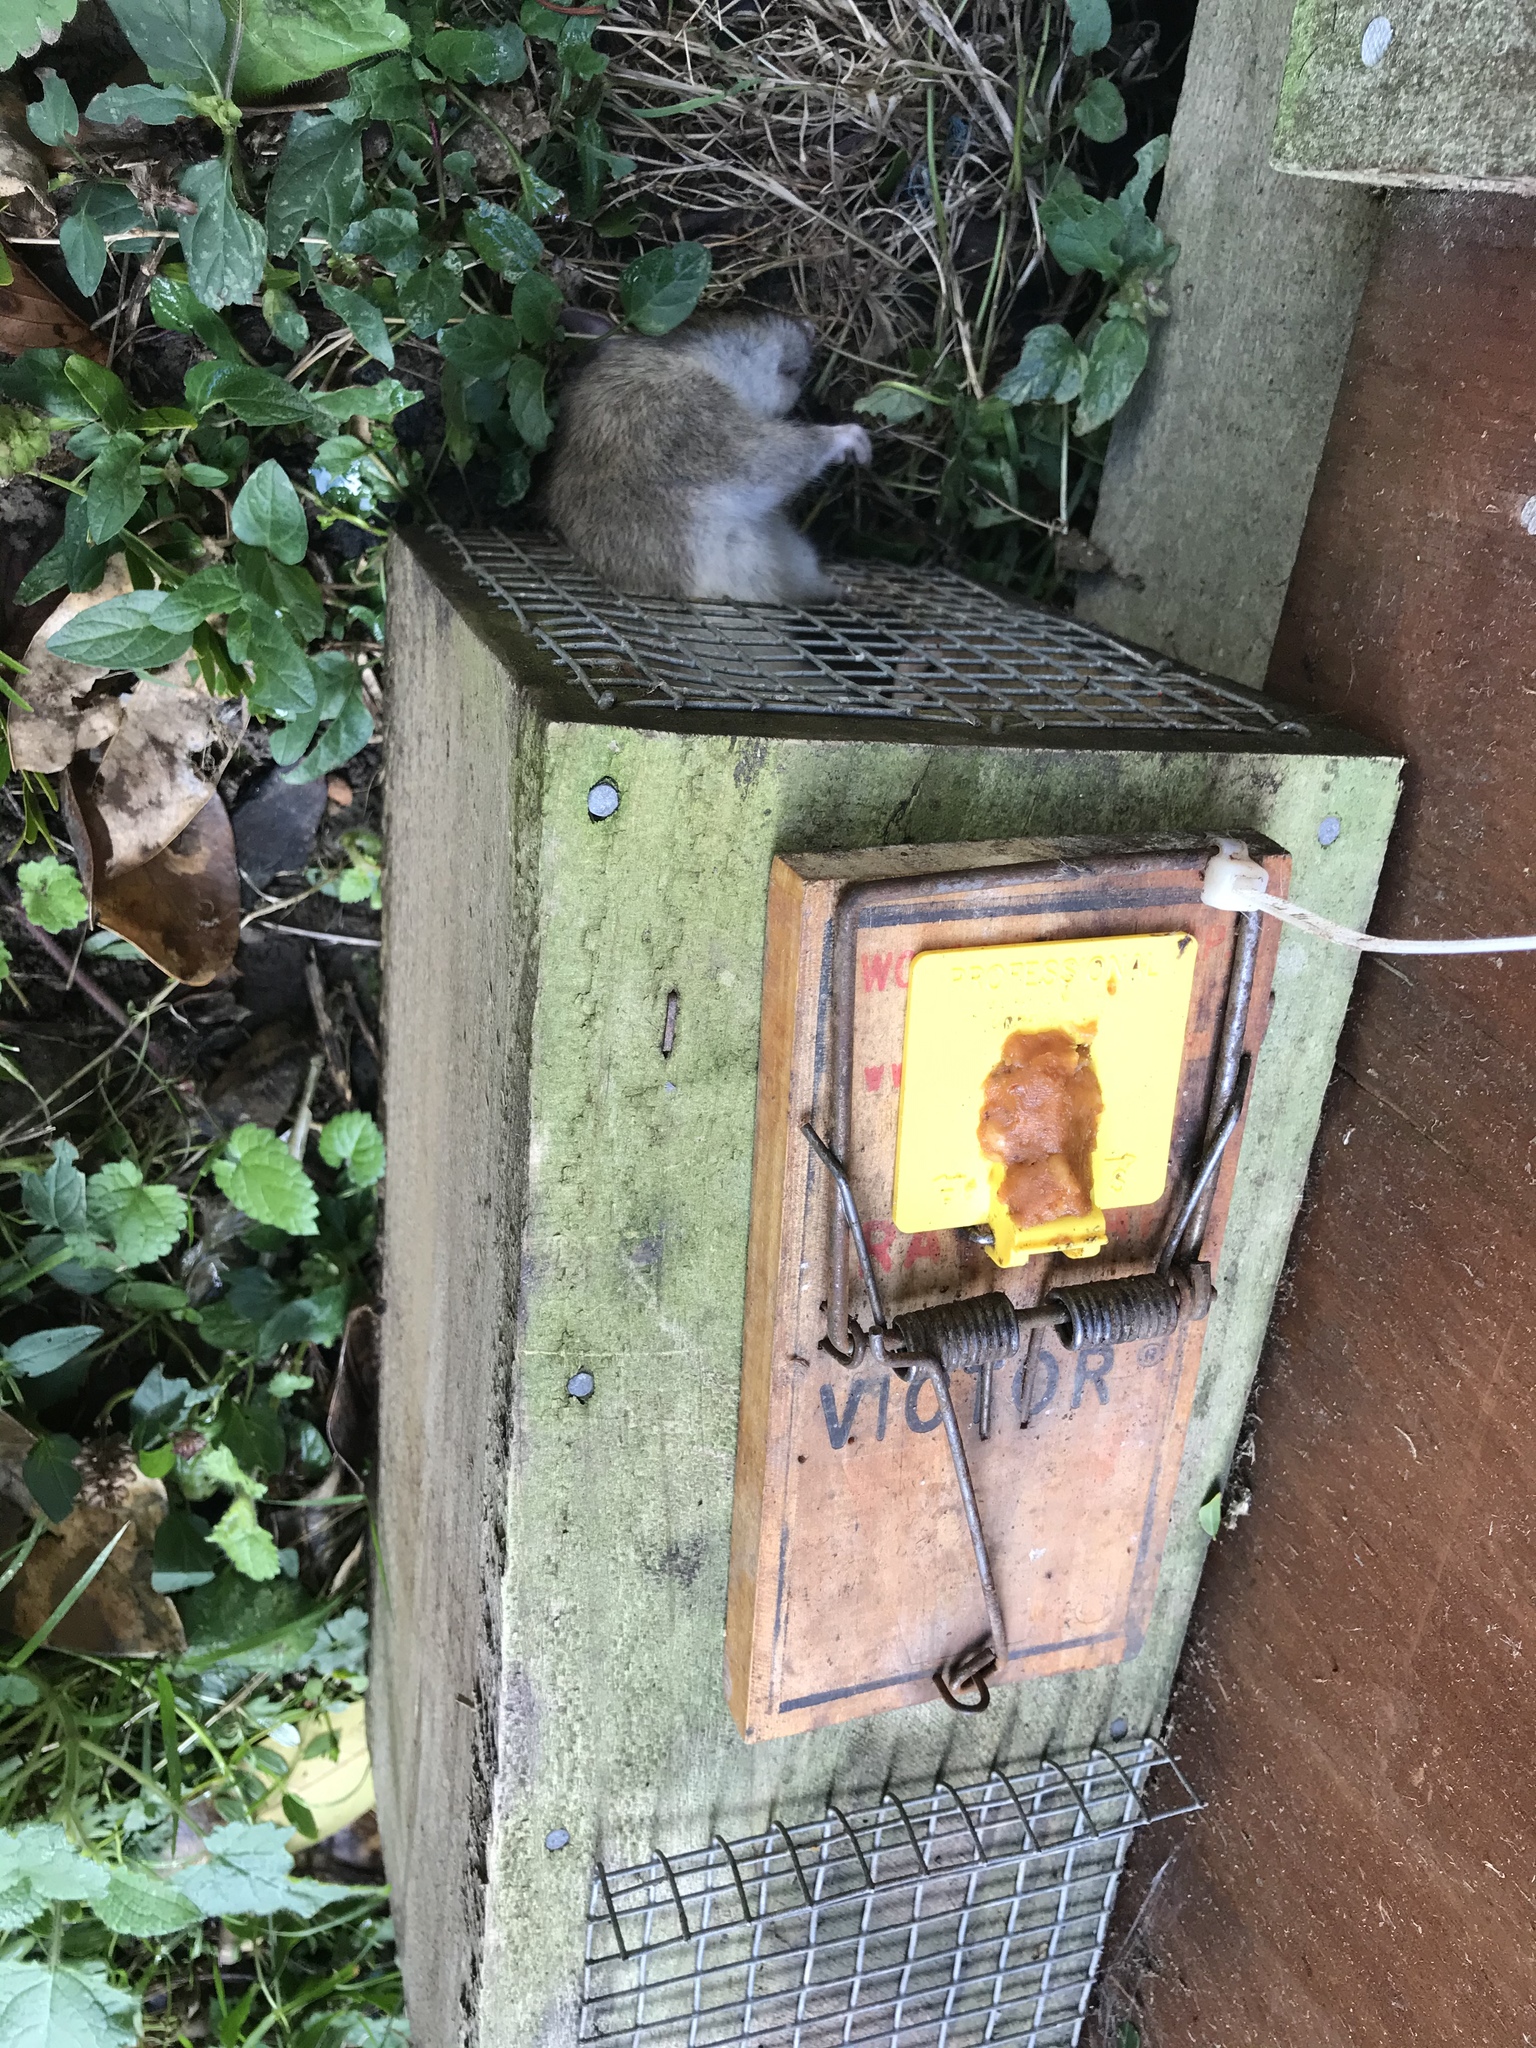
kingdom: Animalia
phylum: Chordata
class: Mammalia
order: Rodentia
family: Muridae
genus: Rattus
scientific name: Rattus norvegicus
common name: Brown rat
